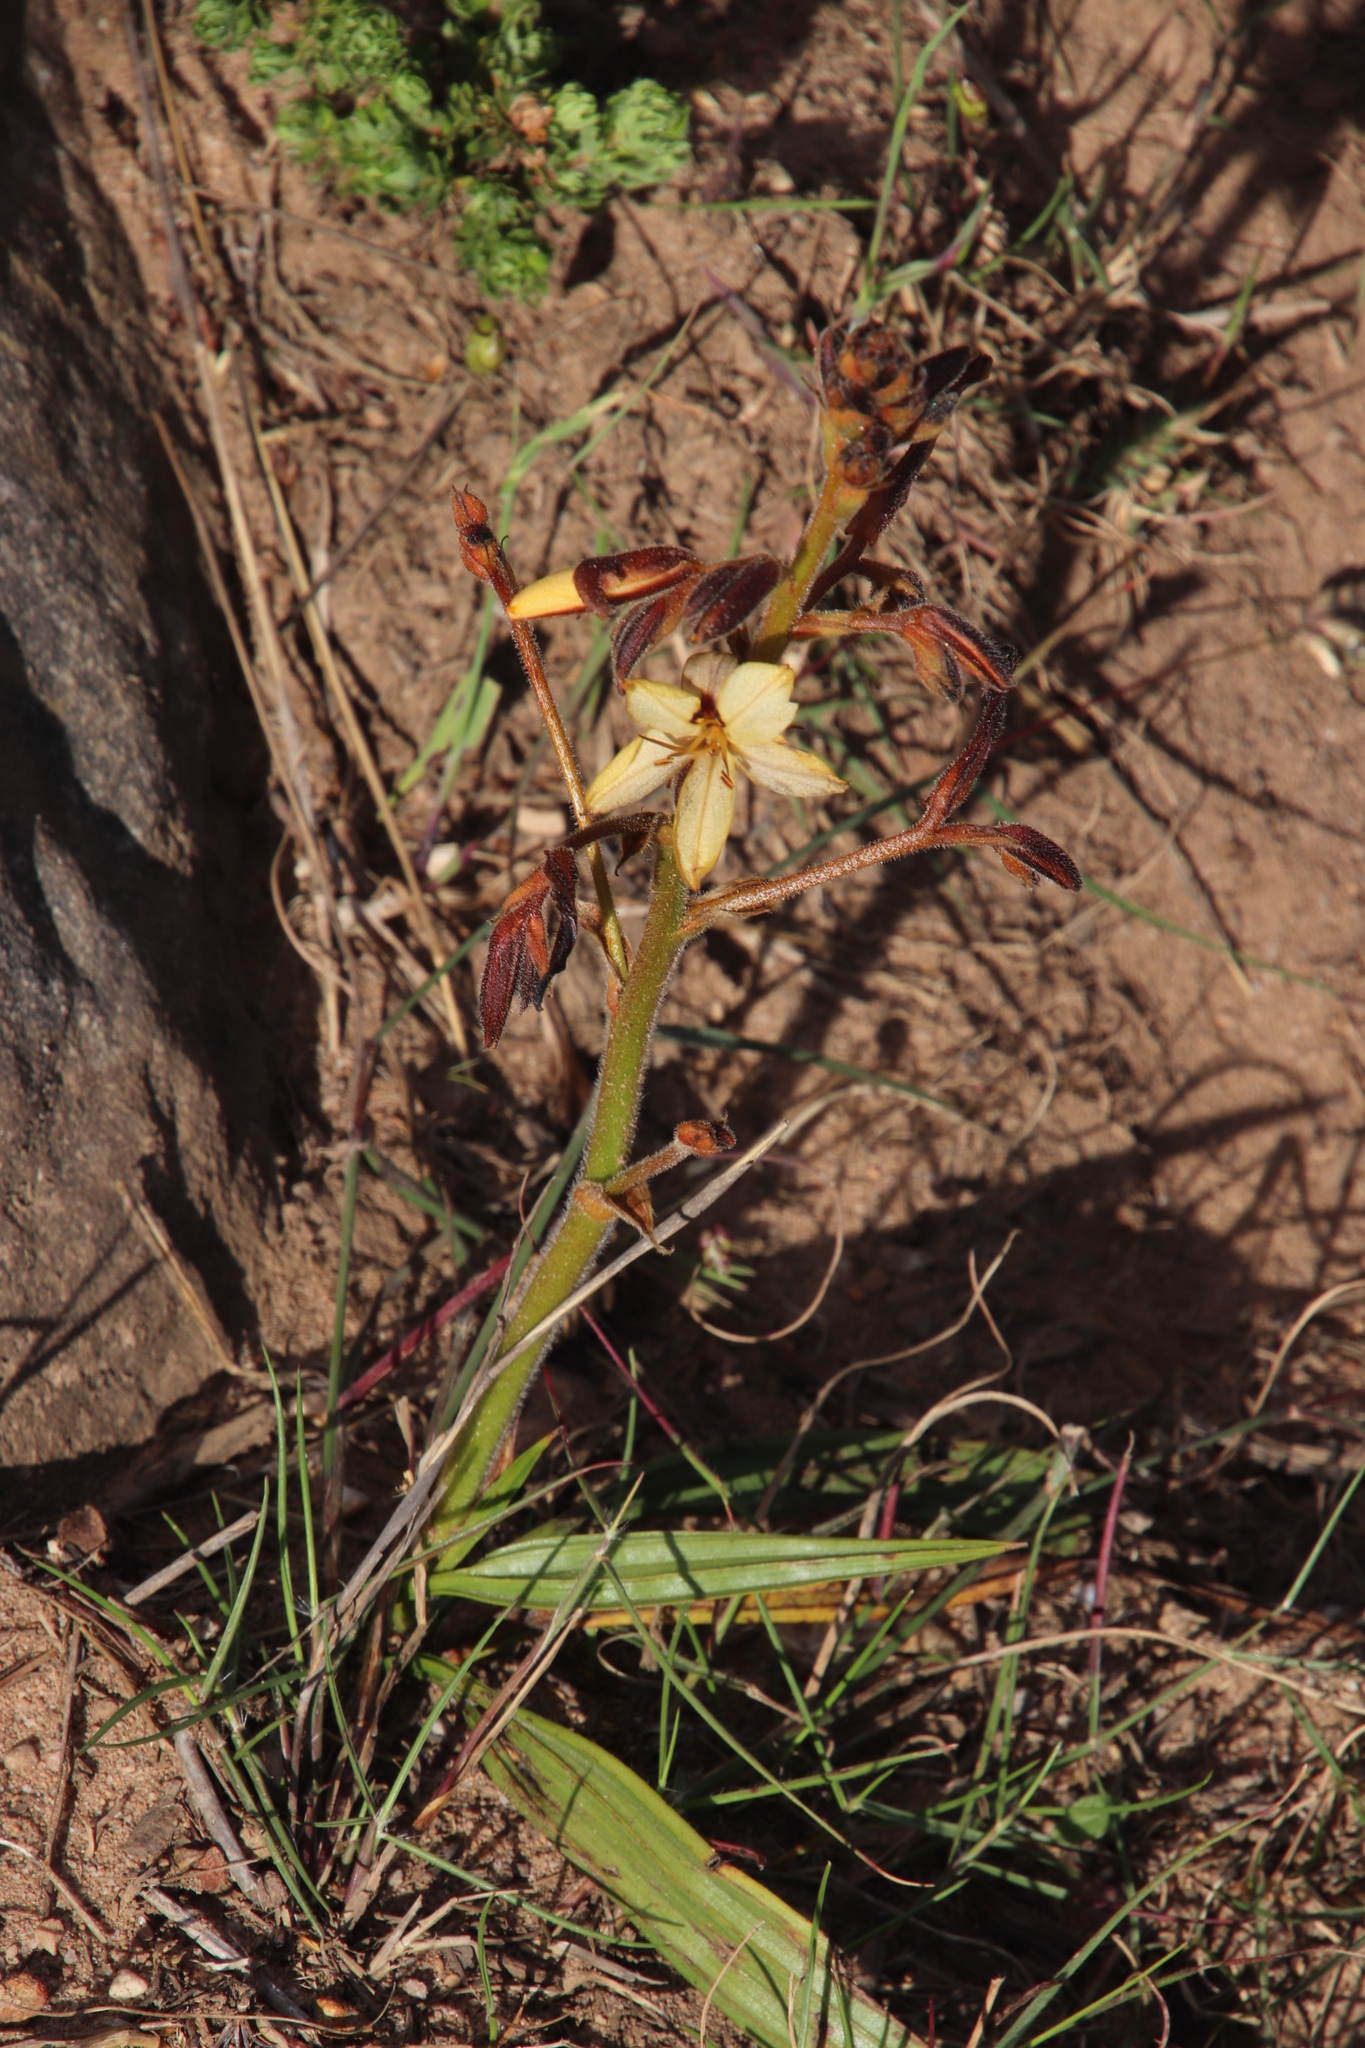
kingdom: Plantae
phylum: Tracheophyta
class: Liliopsida
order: Commelinales
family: Haemodoraceae
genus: Wachendorfia
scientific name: Wachendorfia paniculata
